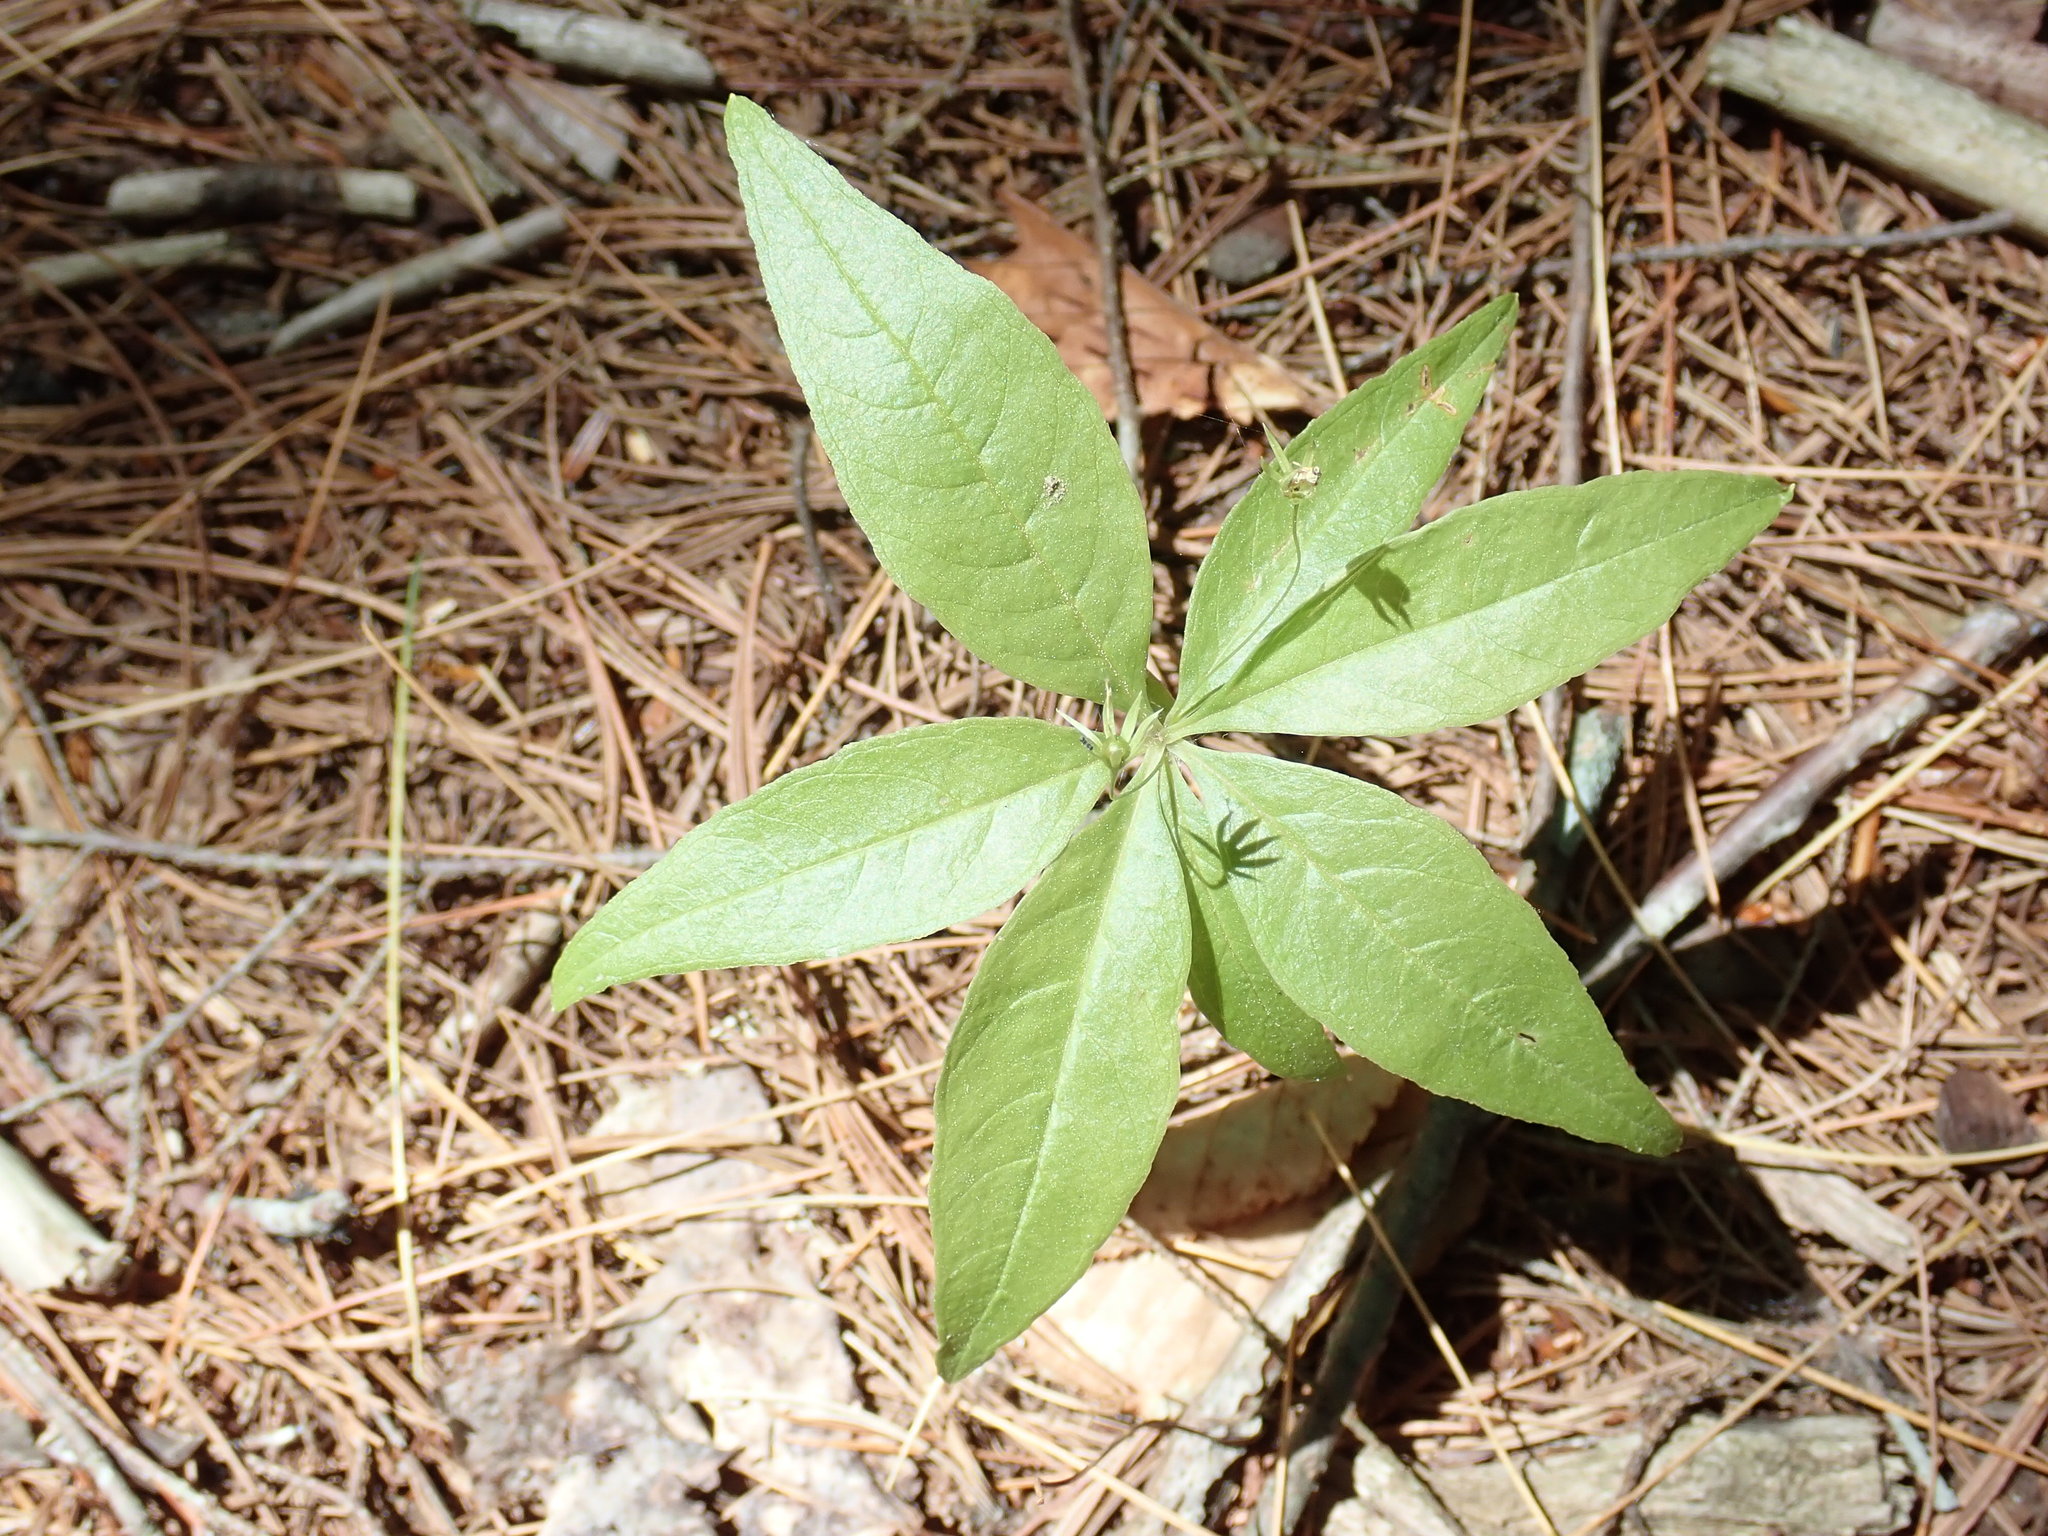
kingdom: Plantae
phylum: Tracheophyta
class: Magnoliopsida
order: Ericales
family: Primulaceae
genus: Lysimachia
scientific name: Lysimachia borealis
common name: American starflower
